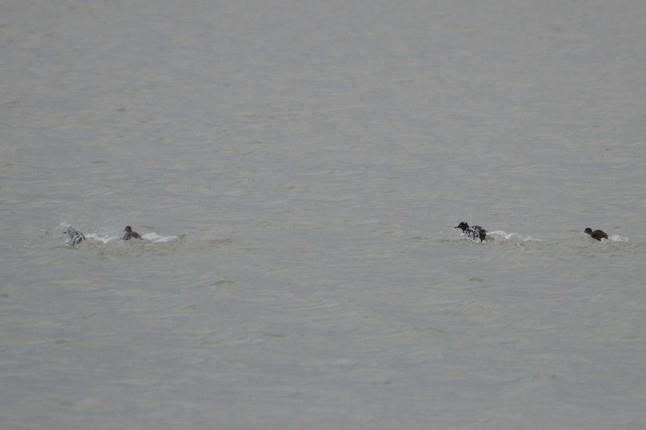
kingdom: Animalia
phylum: Chordata
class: Aves
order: Anseriformes
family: Anatidae
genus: Anas
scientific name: Anas crecca
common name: Eurasian teal
